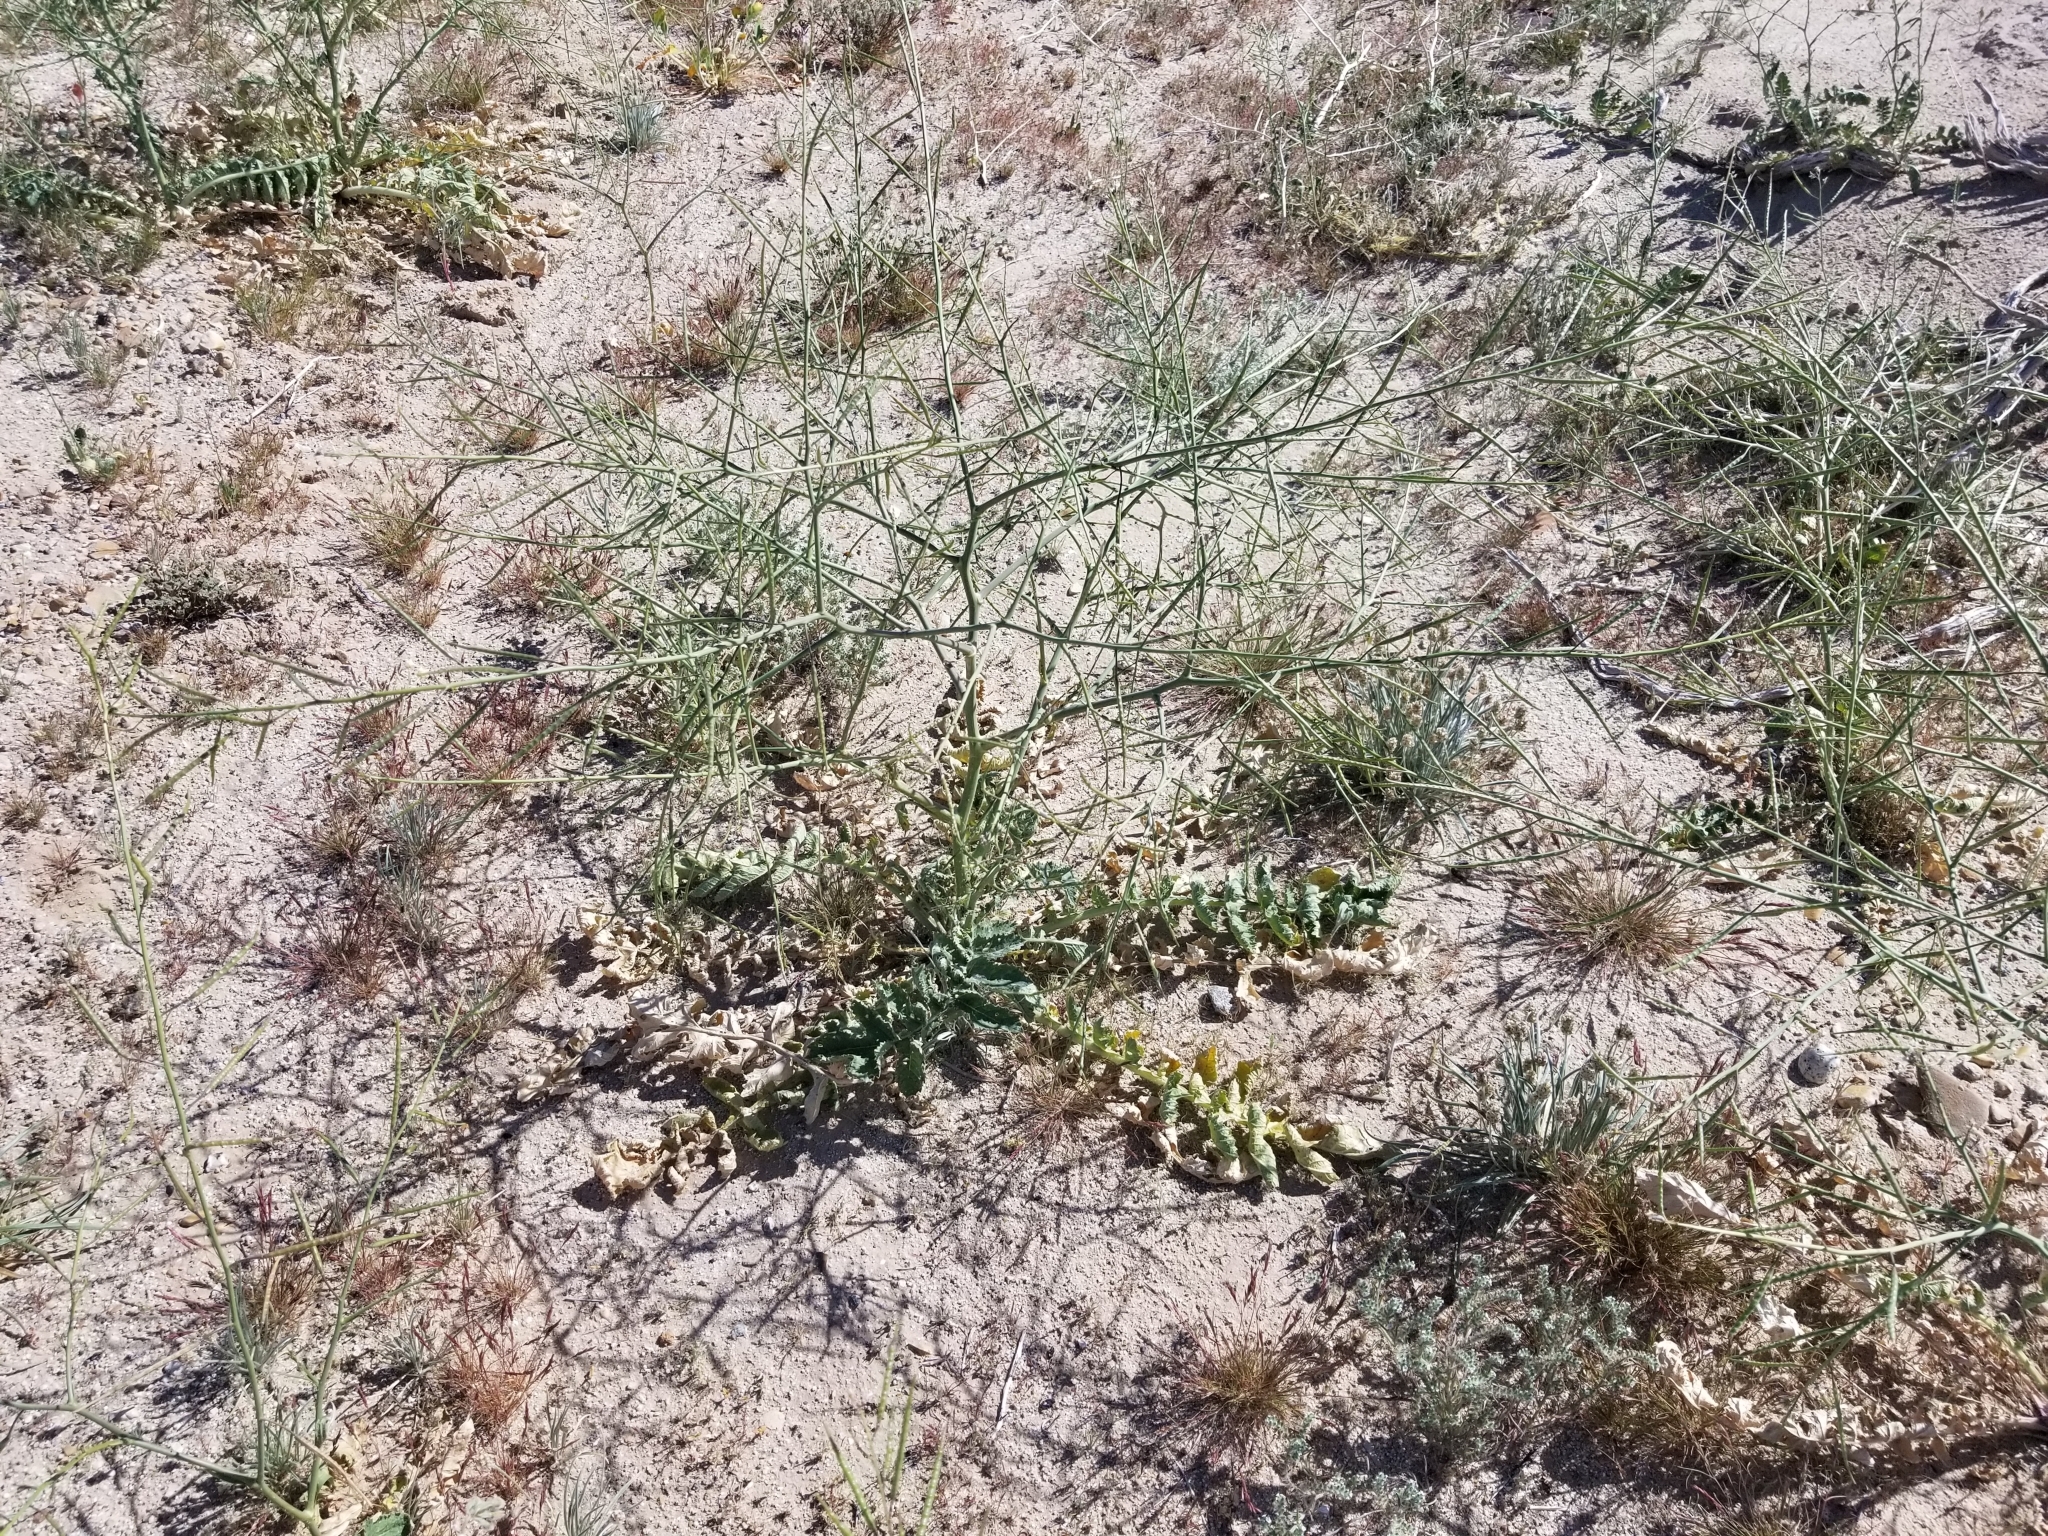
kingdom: Plantae
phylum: Tracheophyta
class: Magnoliopsida
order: Brassicales
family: Brassicaceae
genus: Brassica
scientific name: Brassica tournefortii
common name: Pale cabbage
